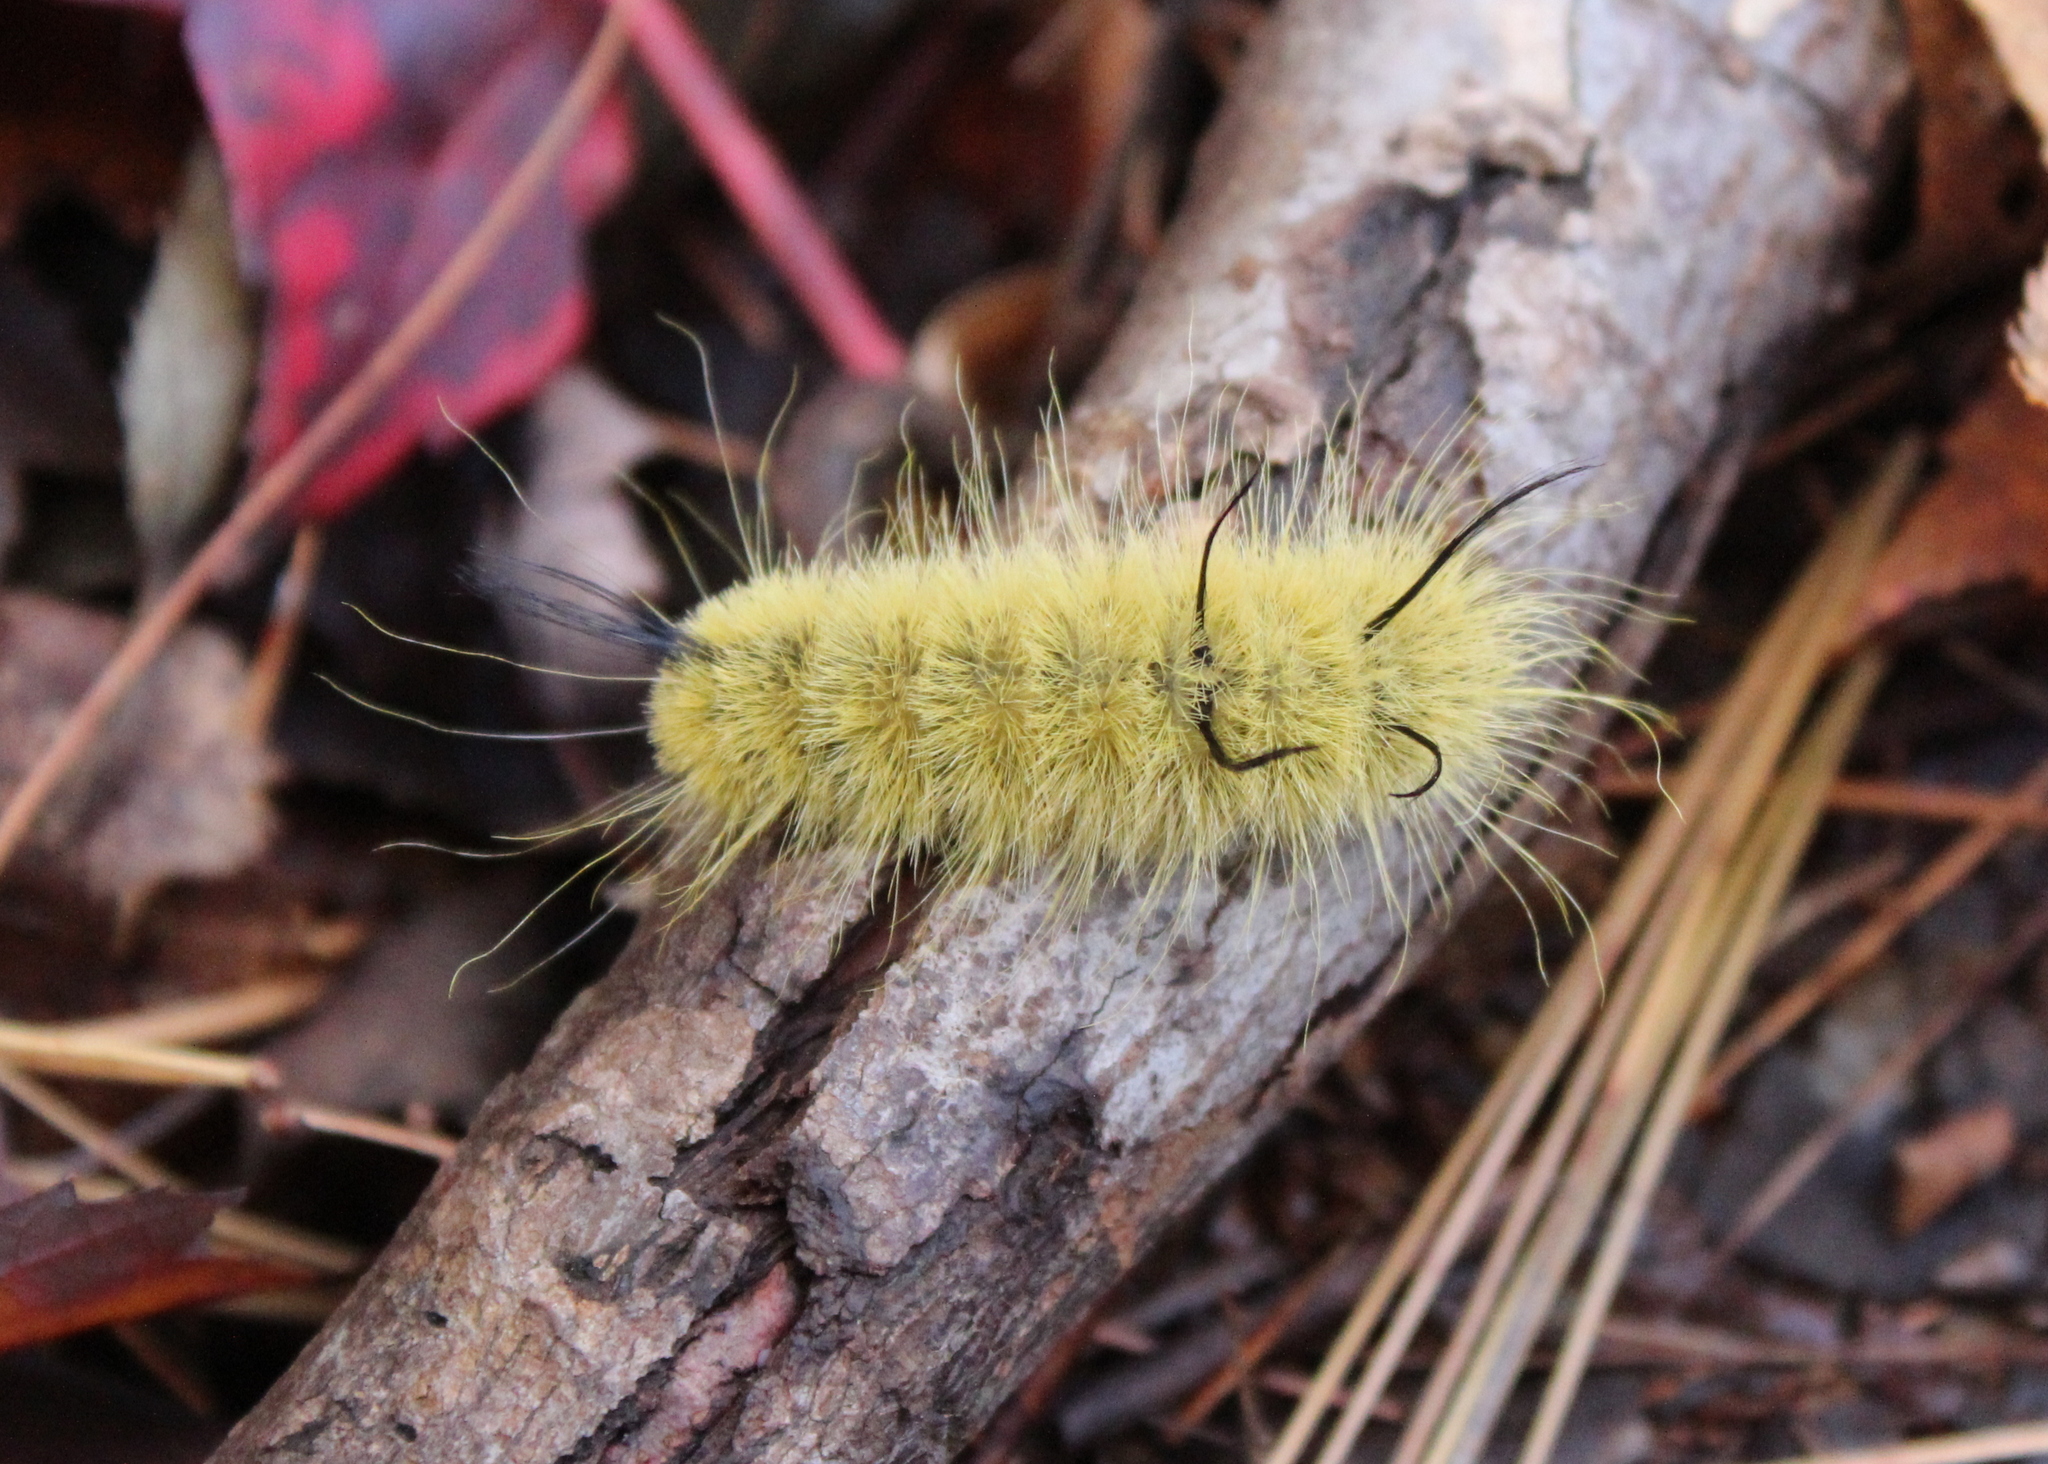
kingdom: Animalia
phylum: Arthropoda
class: Insecta
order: Lepidoptera
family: Noctuidae
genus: Acronicta
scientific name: Acronicta americana
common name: American dagger
